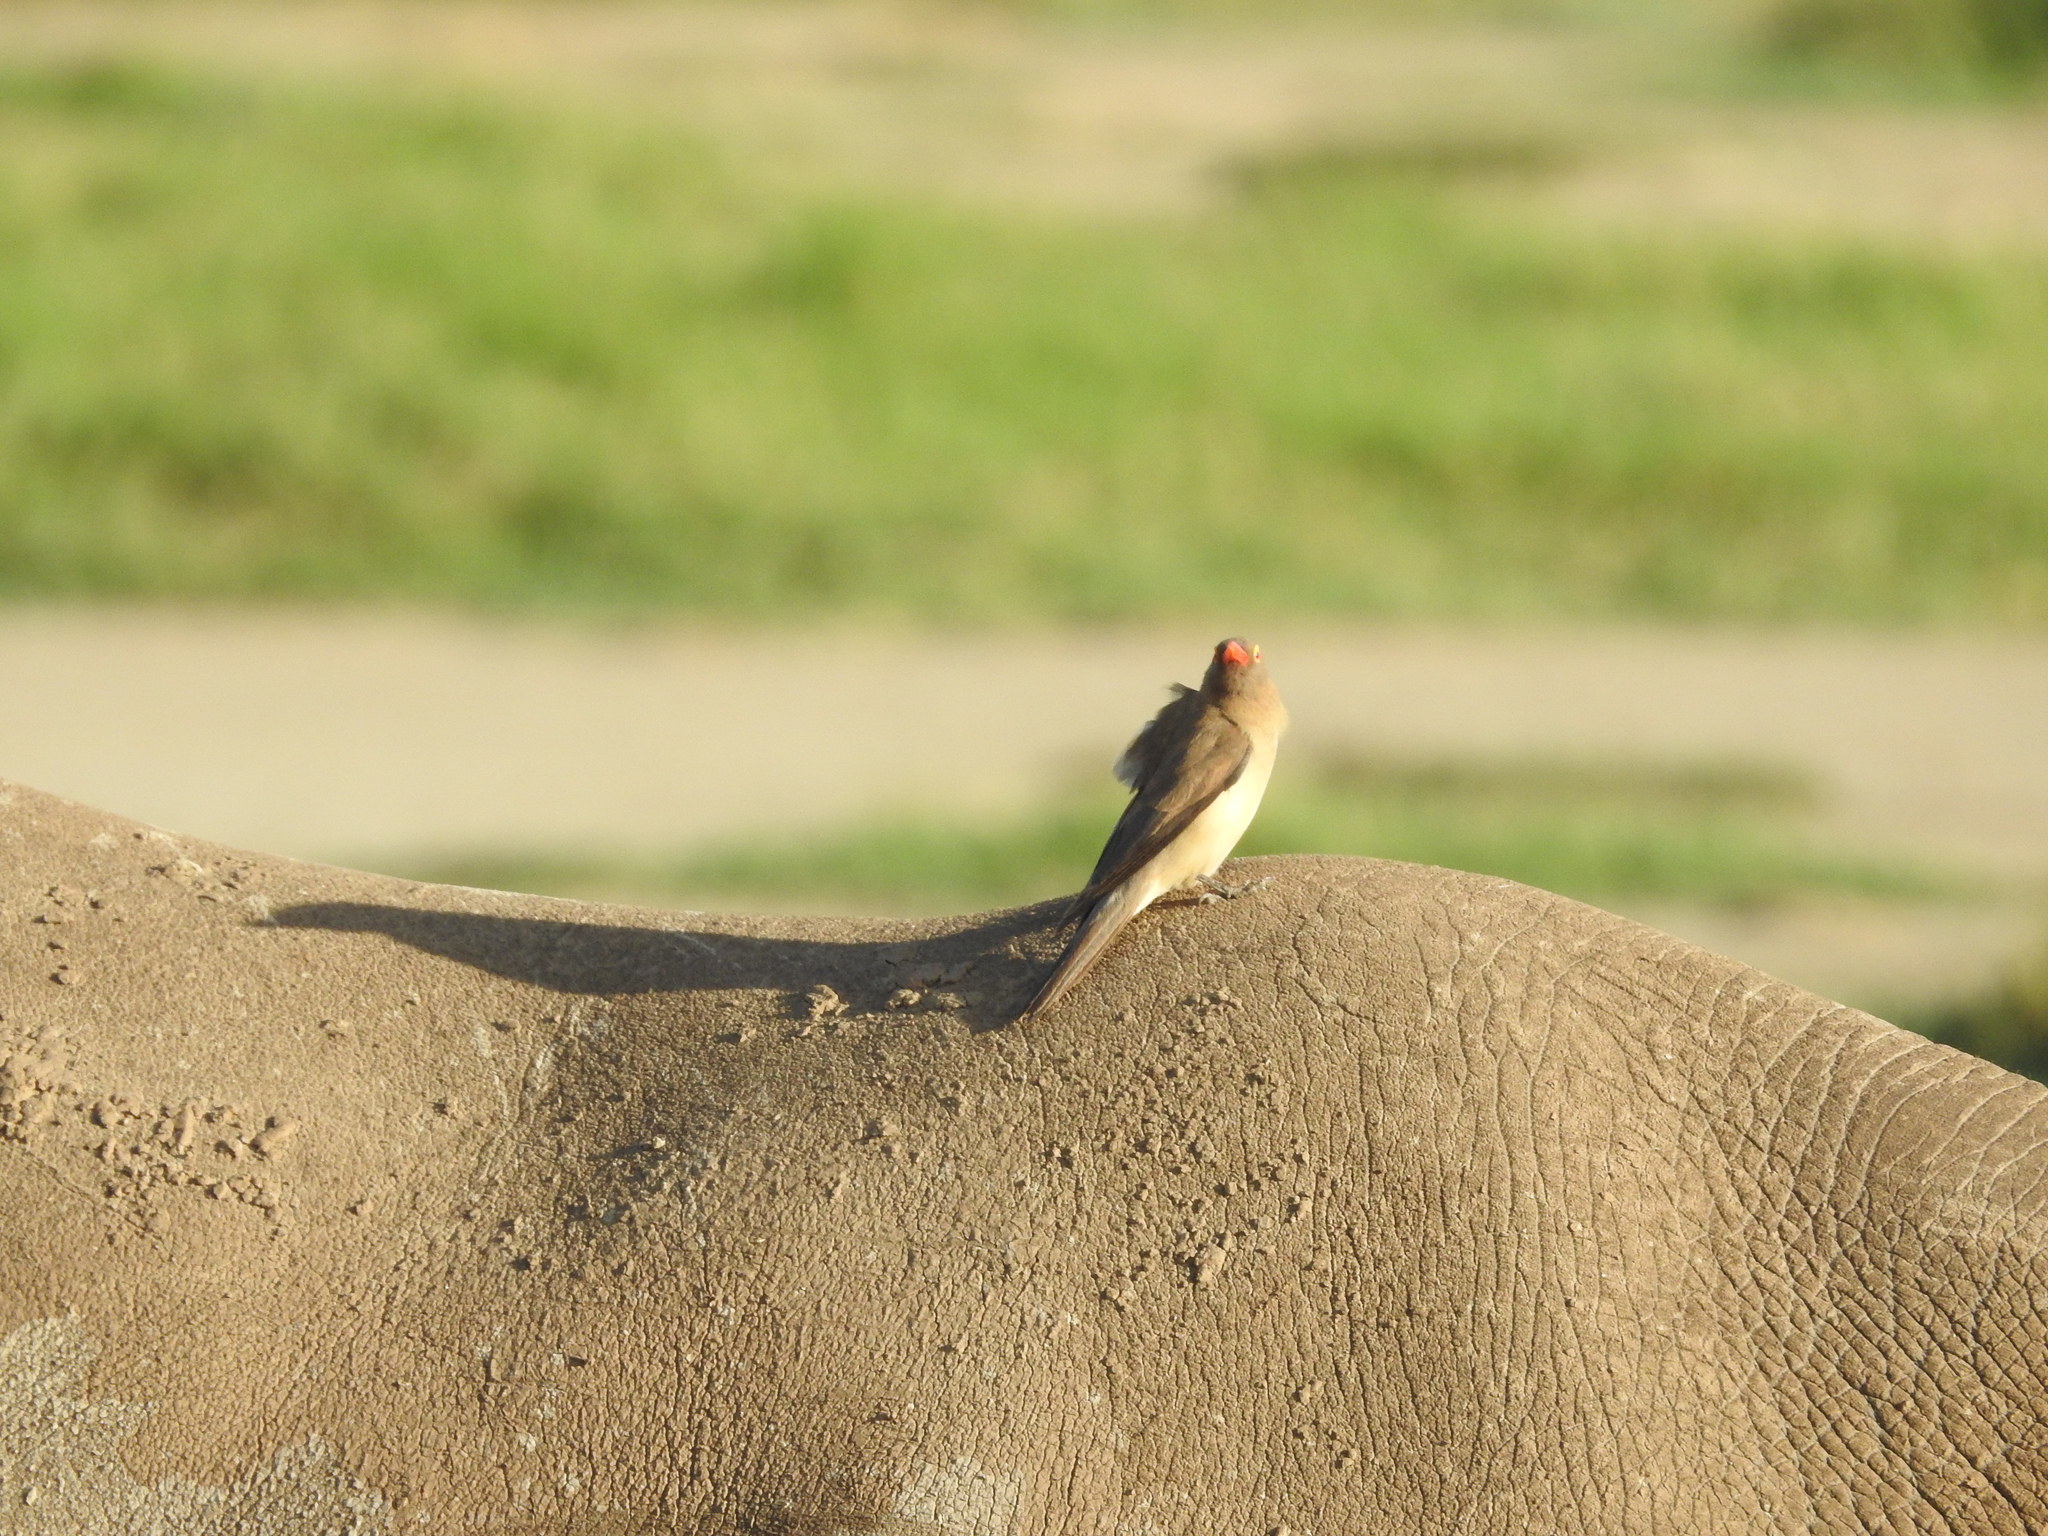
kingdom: Animalia
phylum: Chordata
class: Mammalia
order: Perissodactyla
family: Rhinocerotidae
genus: Ceratotherium
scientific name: Ceratotherium simum
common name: White rhinoceros
